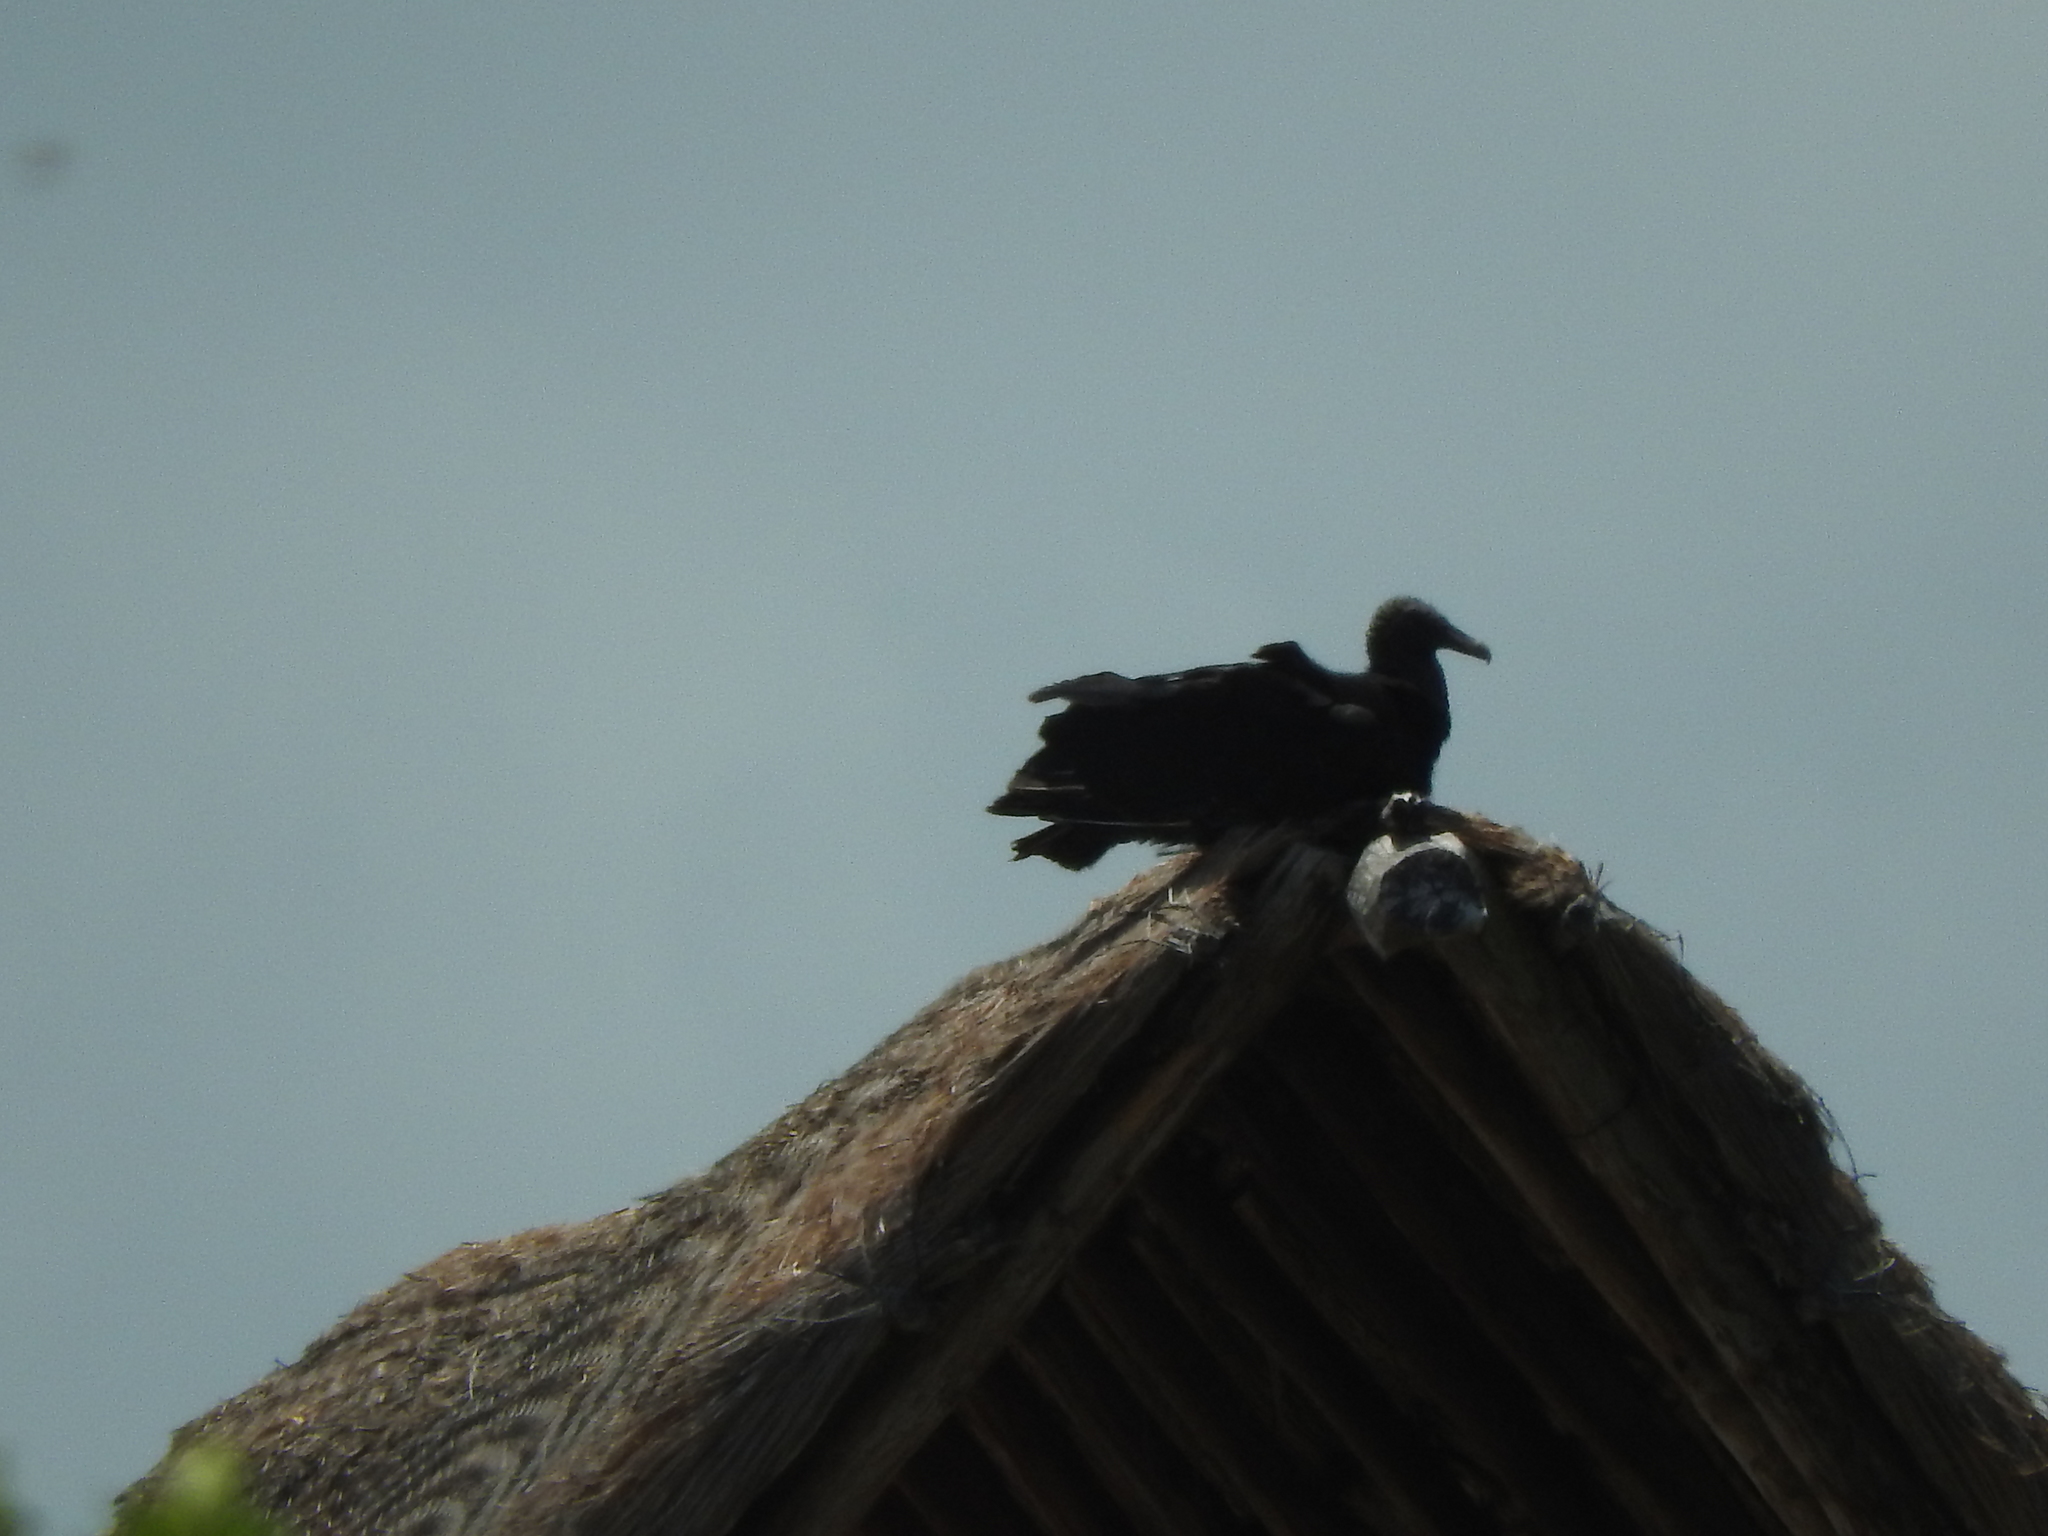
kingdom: Animalia
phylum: Chordata
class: Aves
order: Accipitriformes
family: Cathartidae
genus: Coragyps
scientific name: Coragyps atratus
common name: Black vulture
